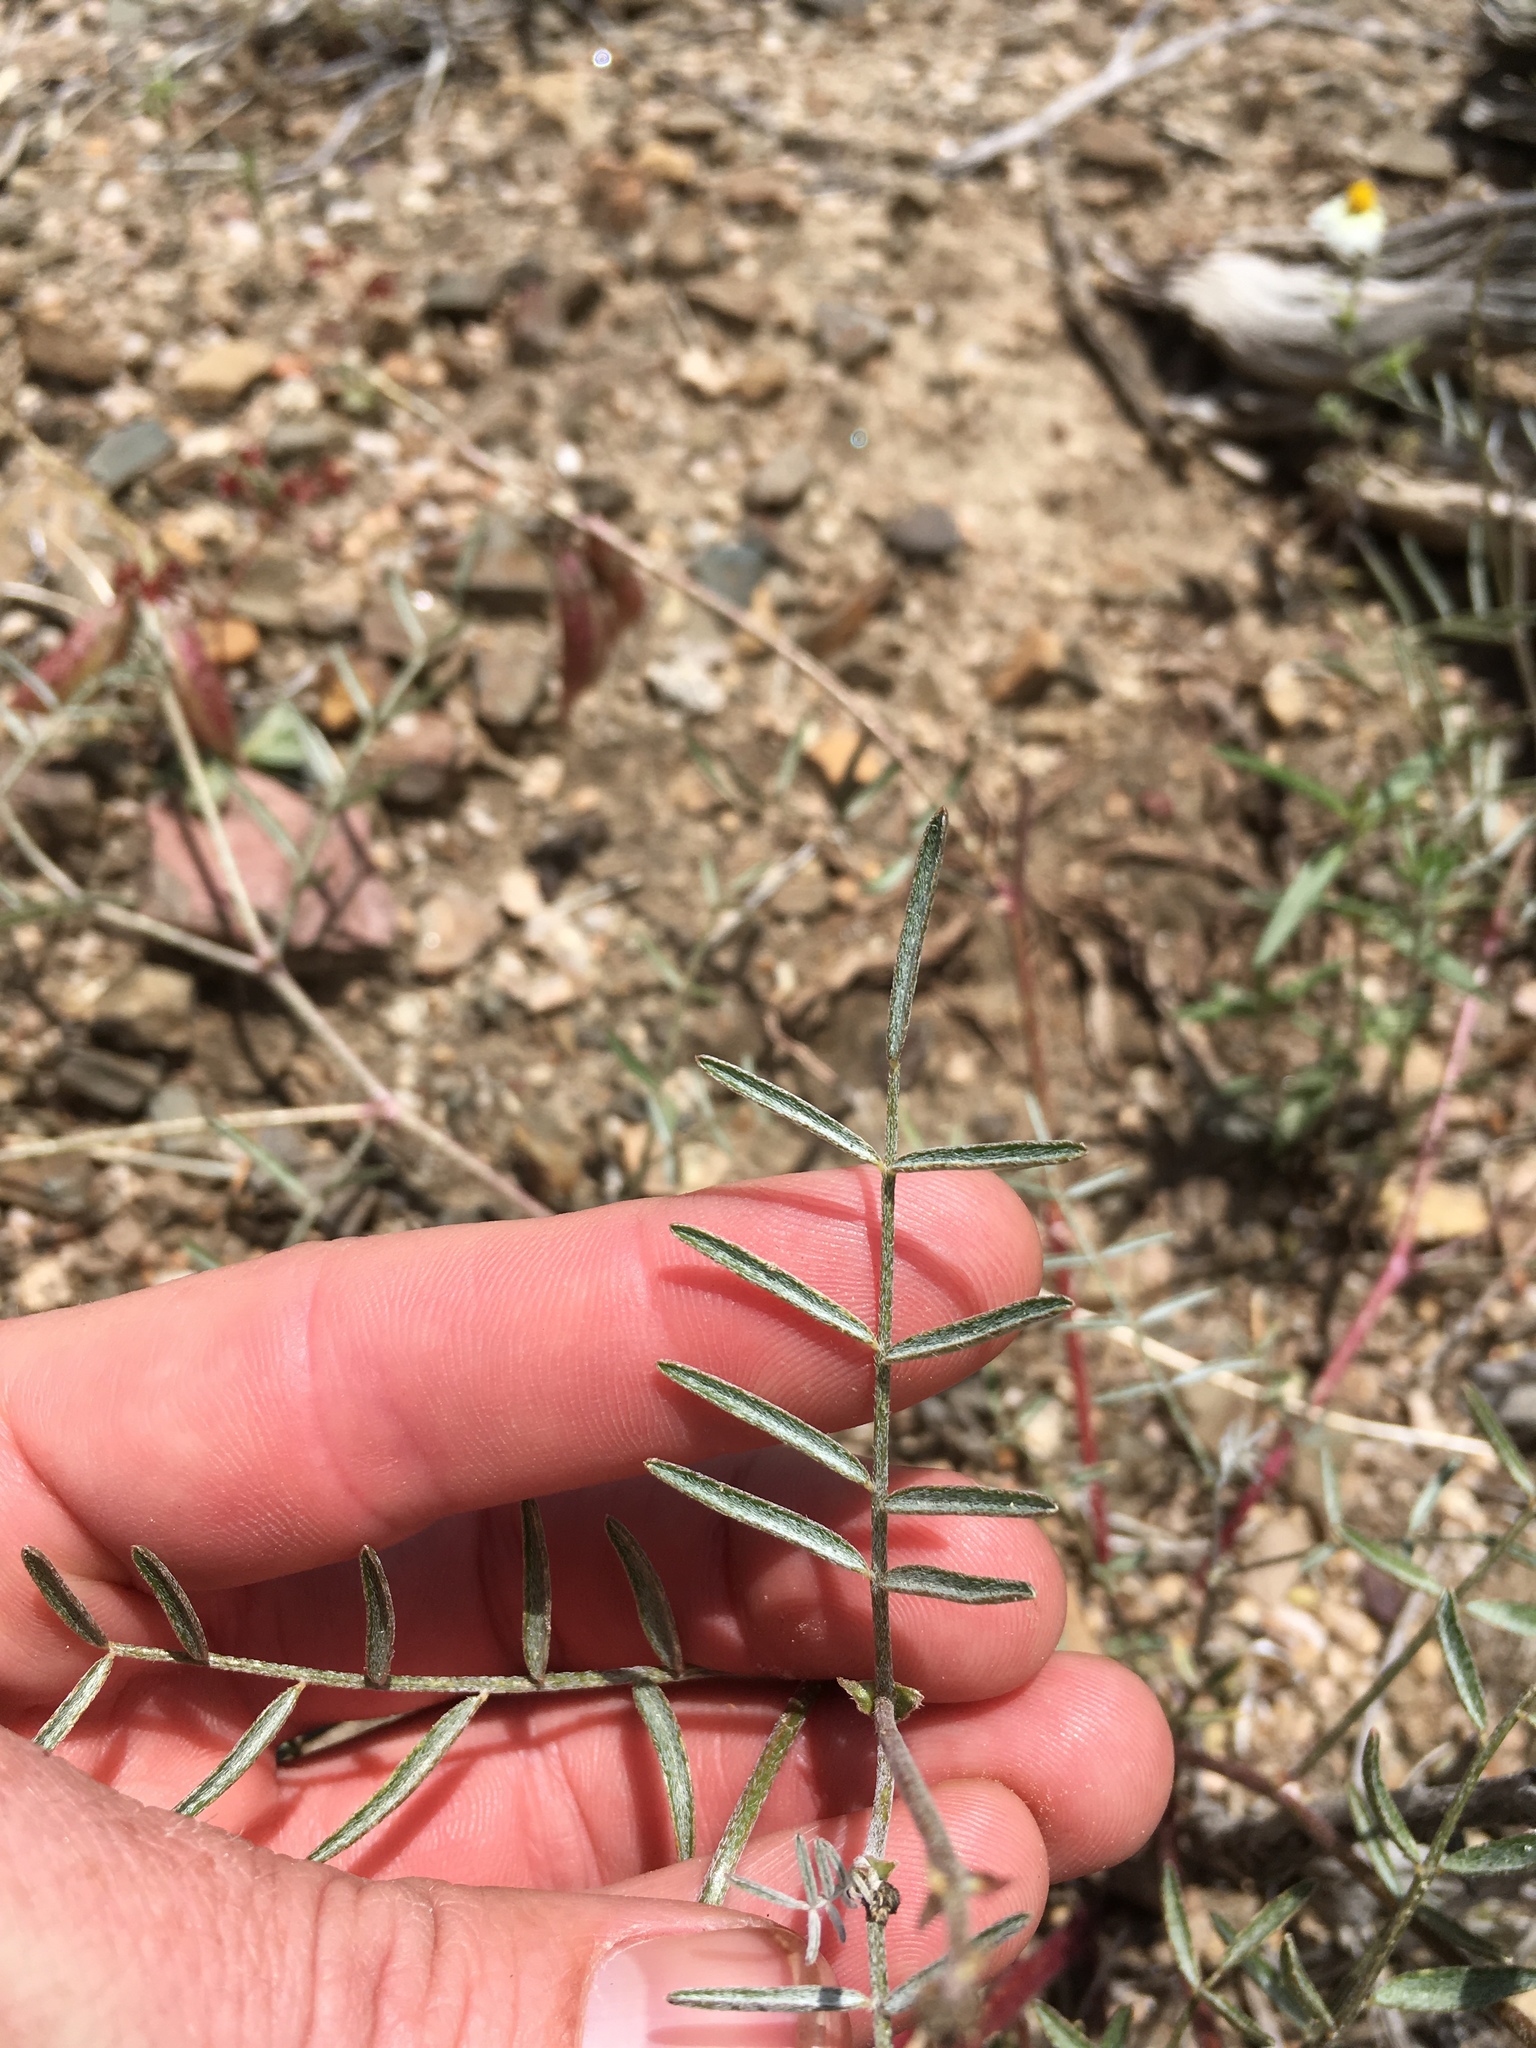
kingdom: Plantae
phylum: Tracheophyta
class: Magnoliopsida
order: Fabales
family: Fabaceae
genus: Astragalus
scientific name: Astragalus casei
